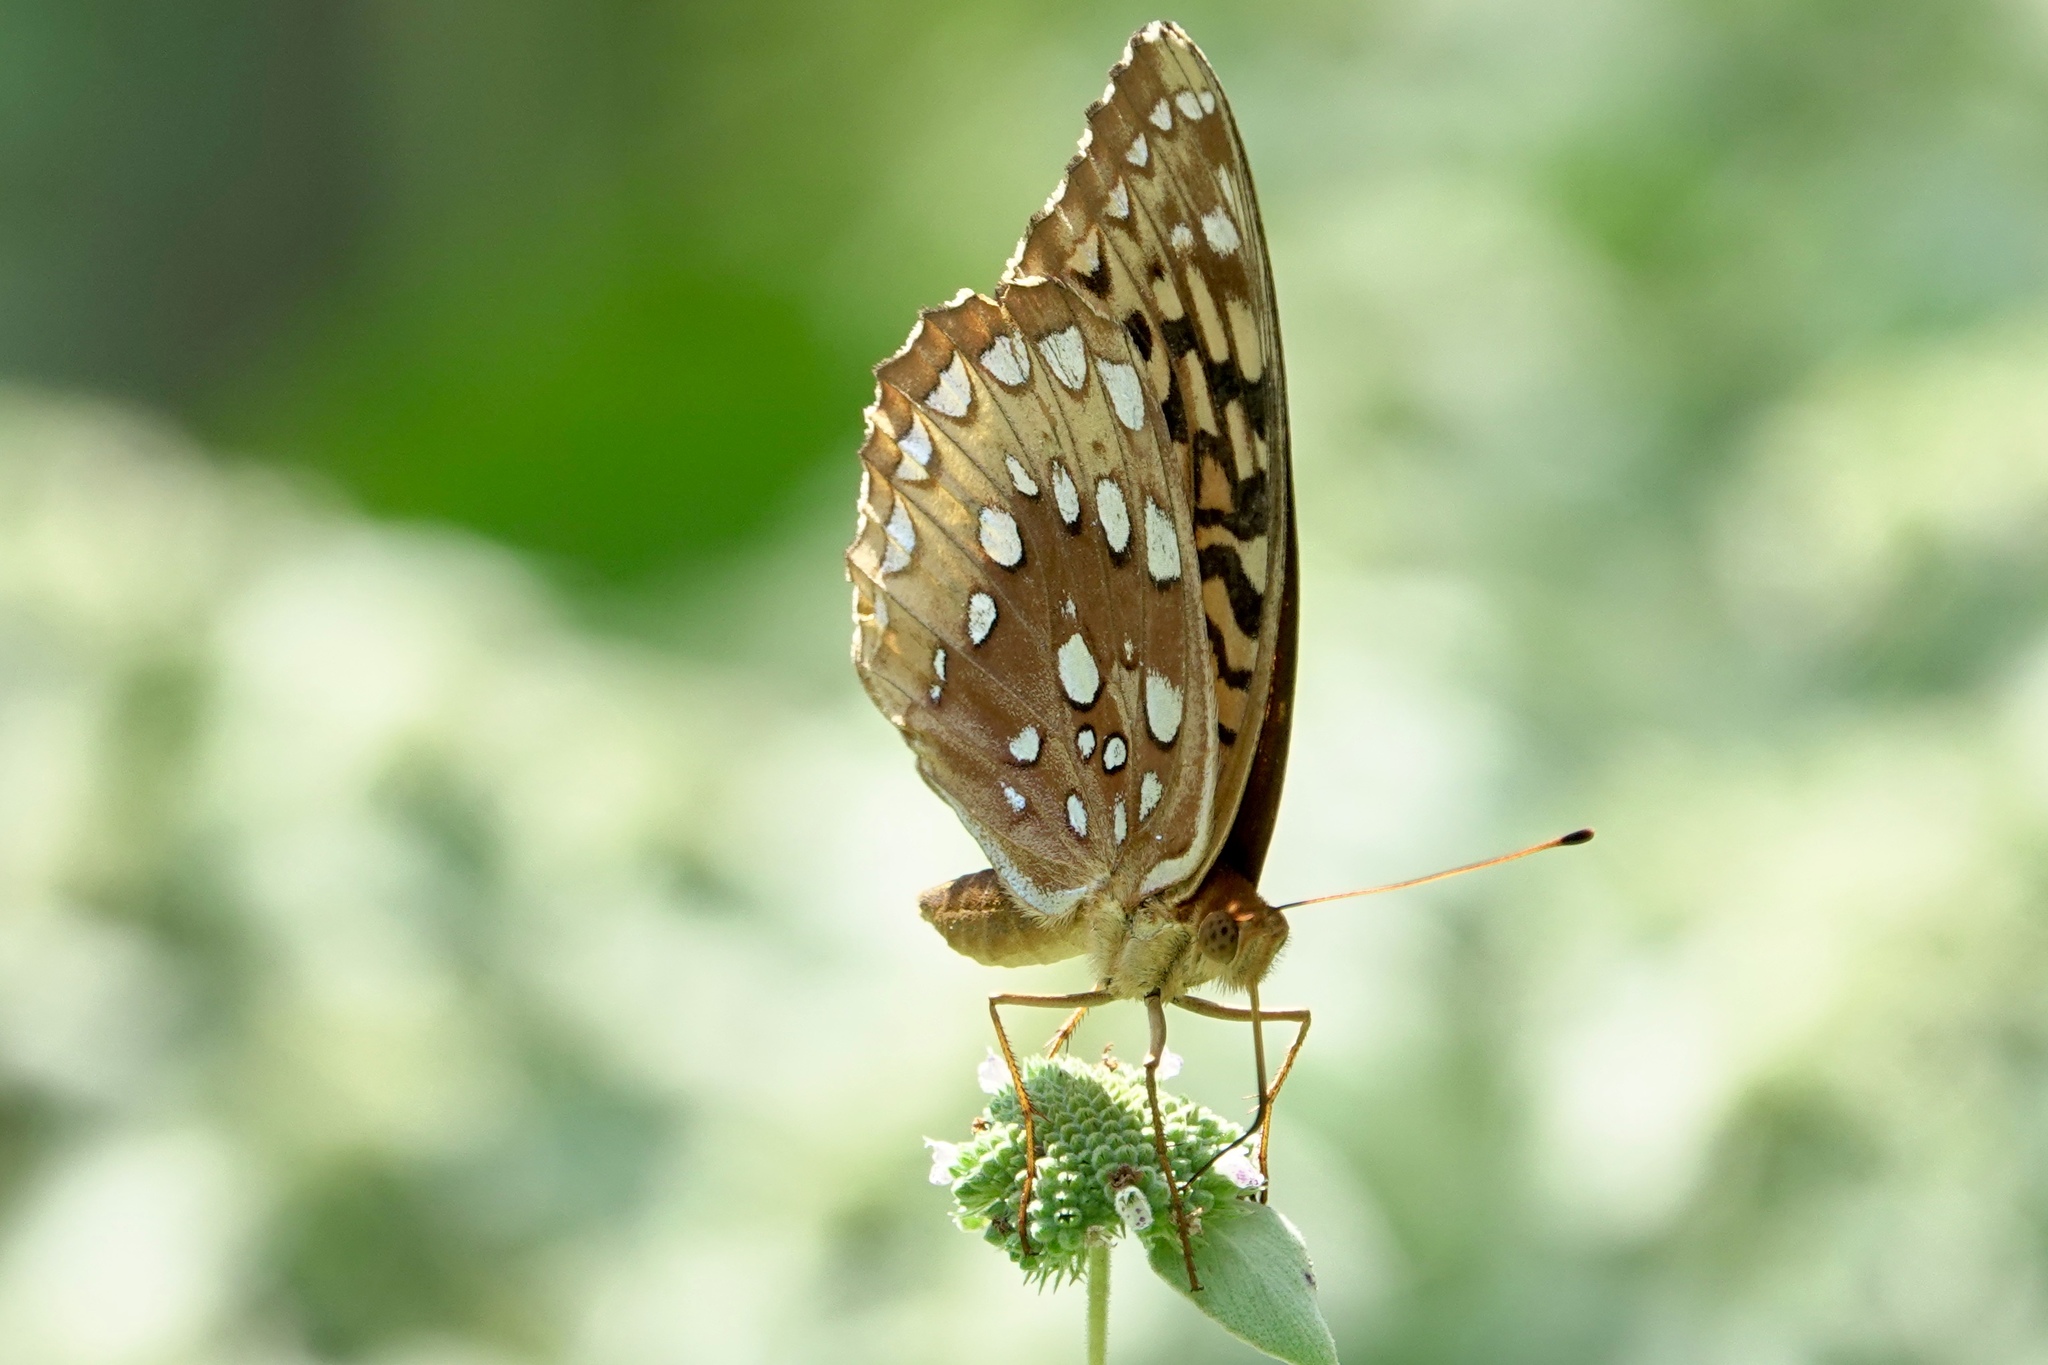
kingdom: Animalia
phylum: Arthropoda
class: Insecta
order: Lepidoptera
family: Nymphalidae
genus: Speyeria
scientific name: Speyeria cybele
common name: Great spangled fritillary
